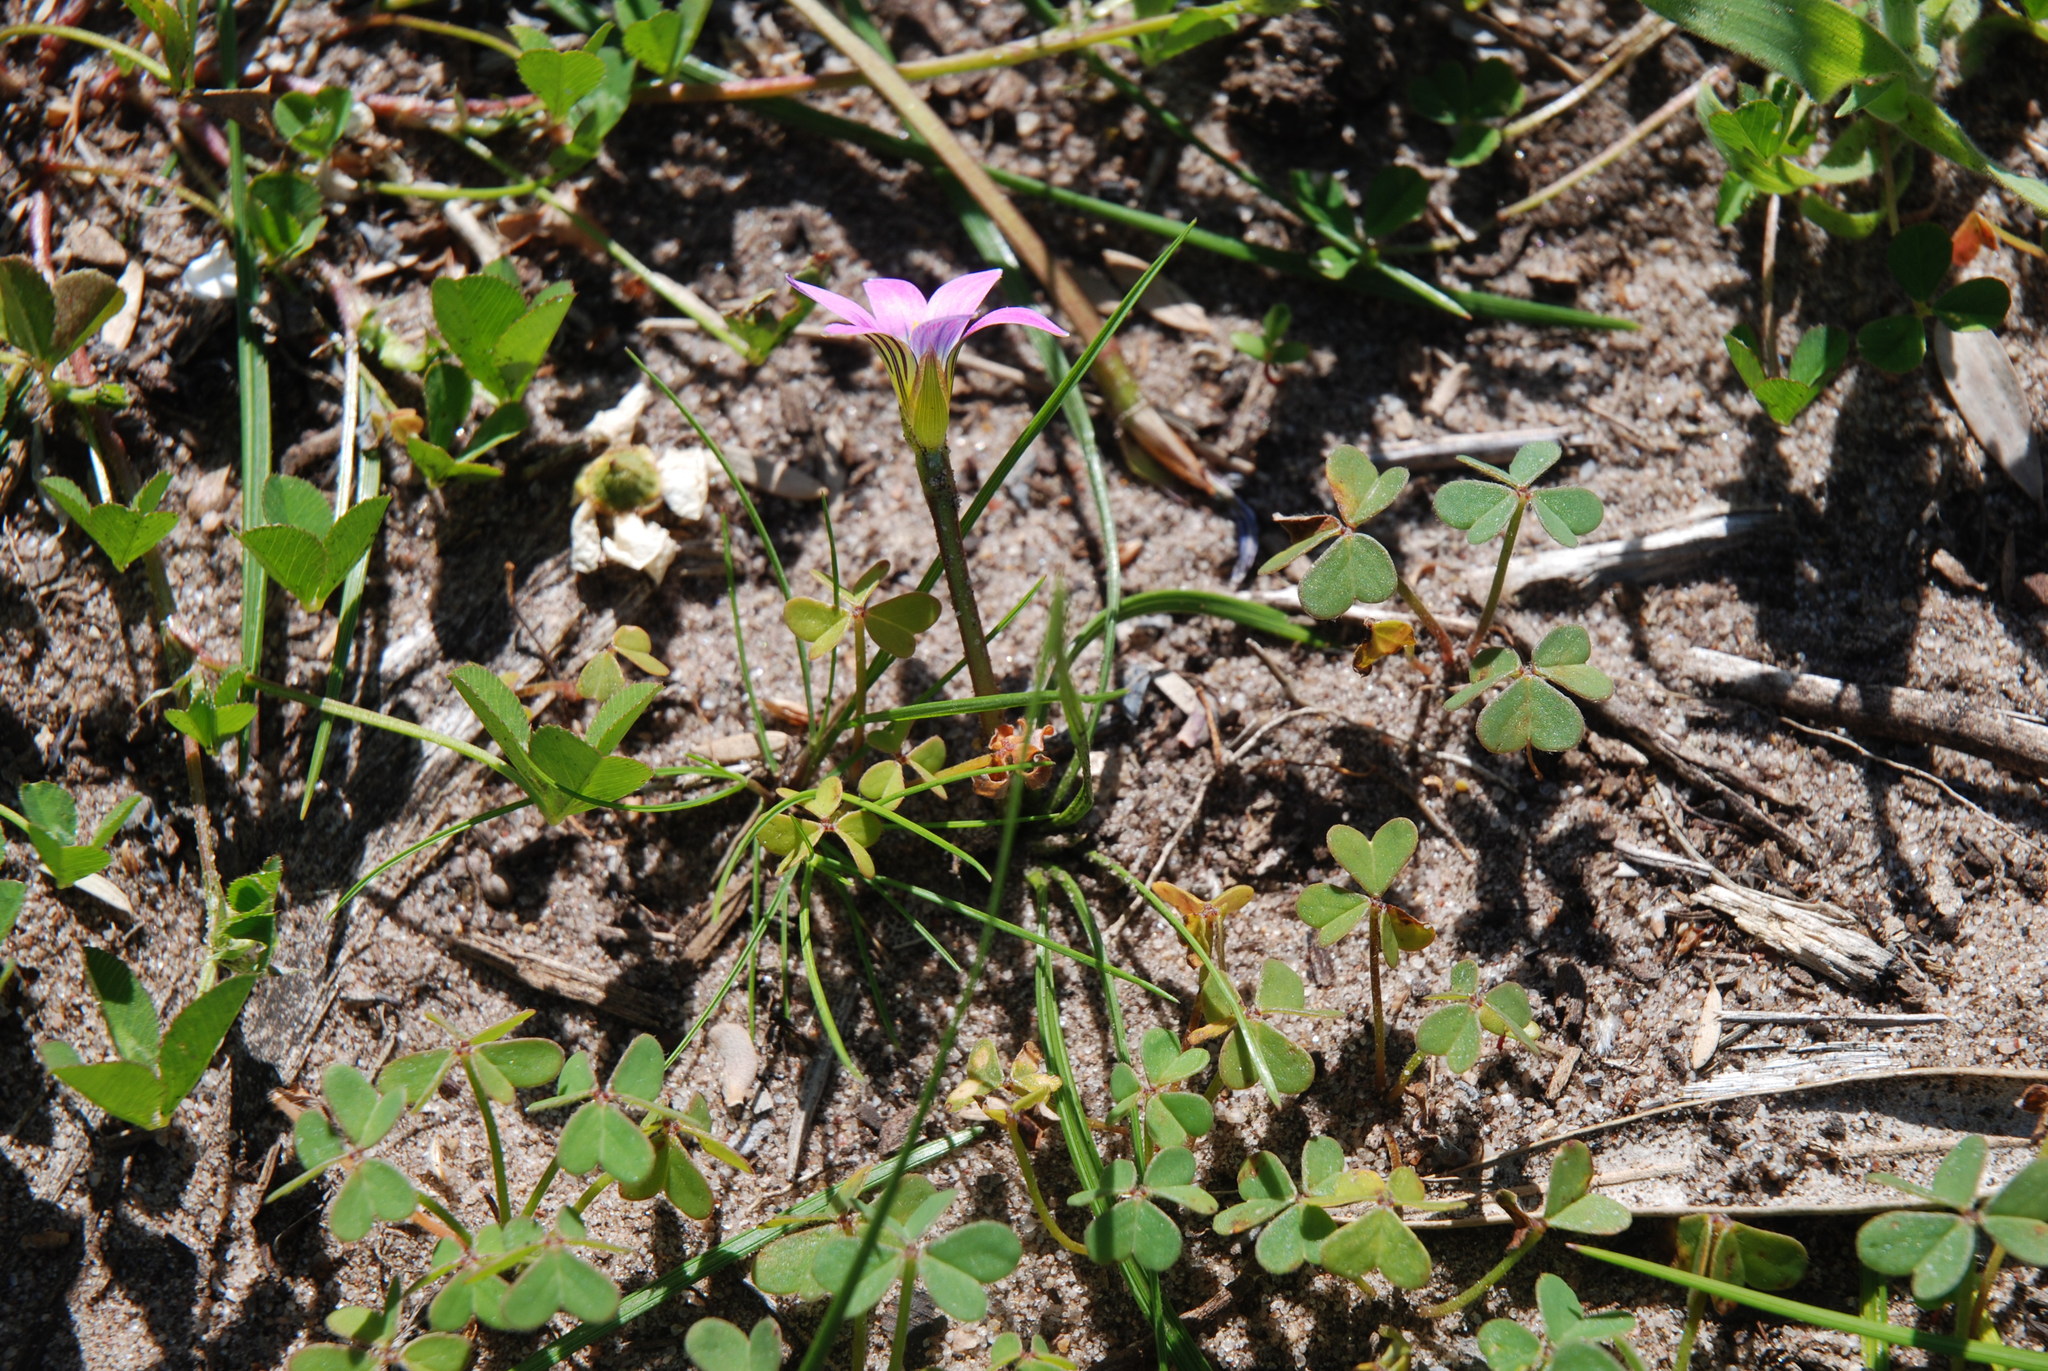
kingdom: Plantae
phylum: Tracheophyta
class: Liliopsida
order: Asparagales
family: Iridaceae
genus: Romulea
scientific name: Romulea rosea
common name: Oniongrass
